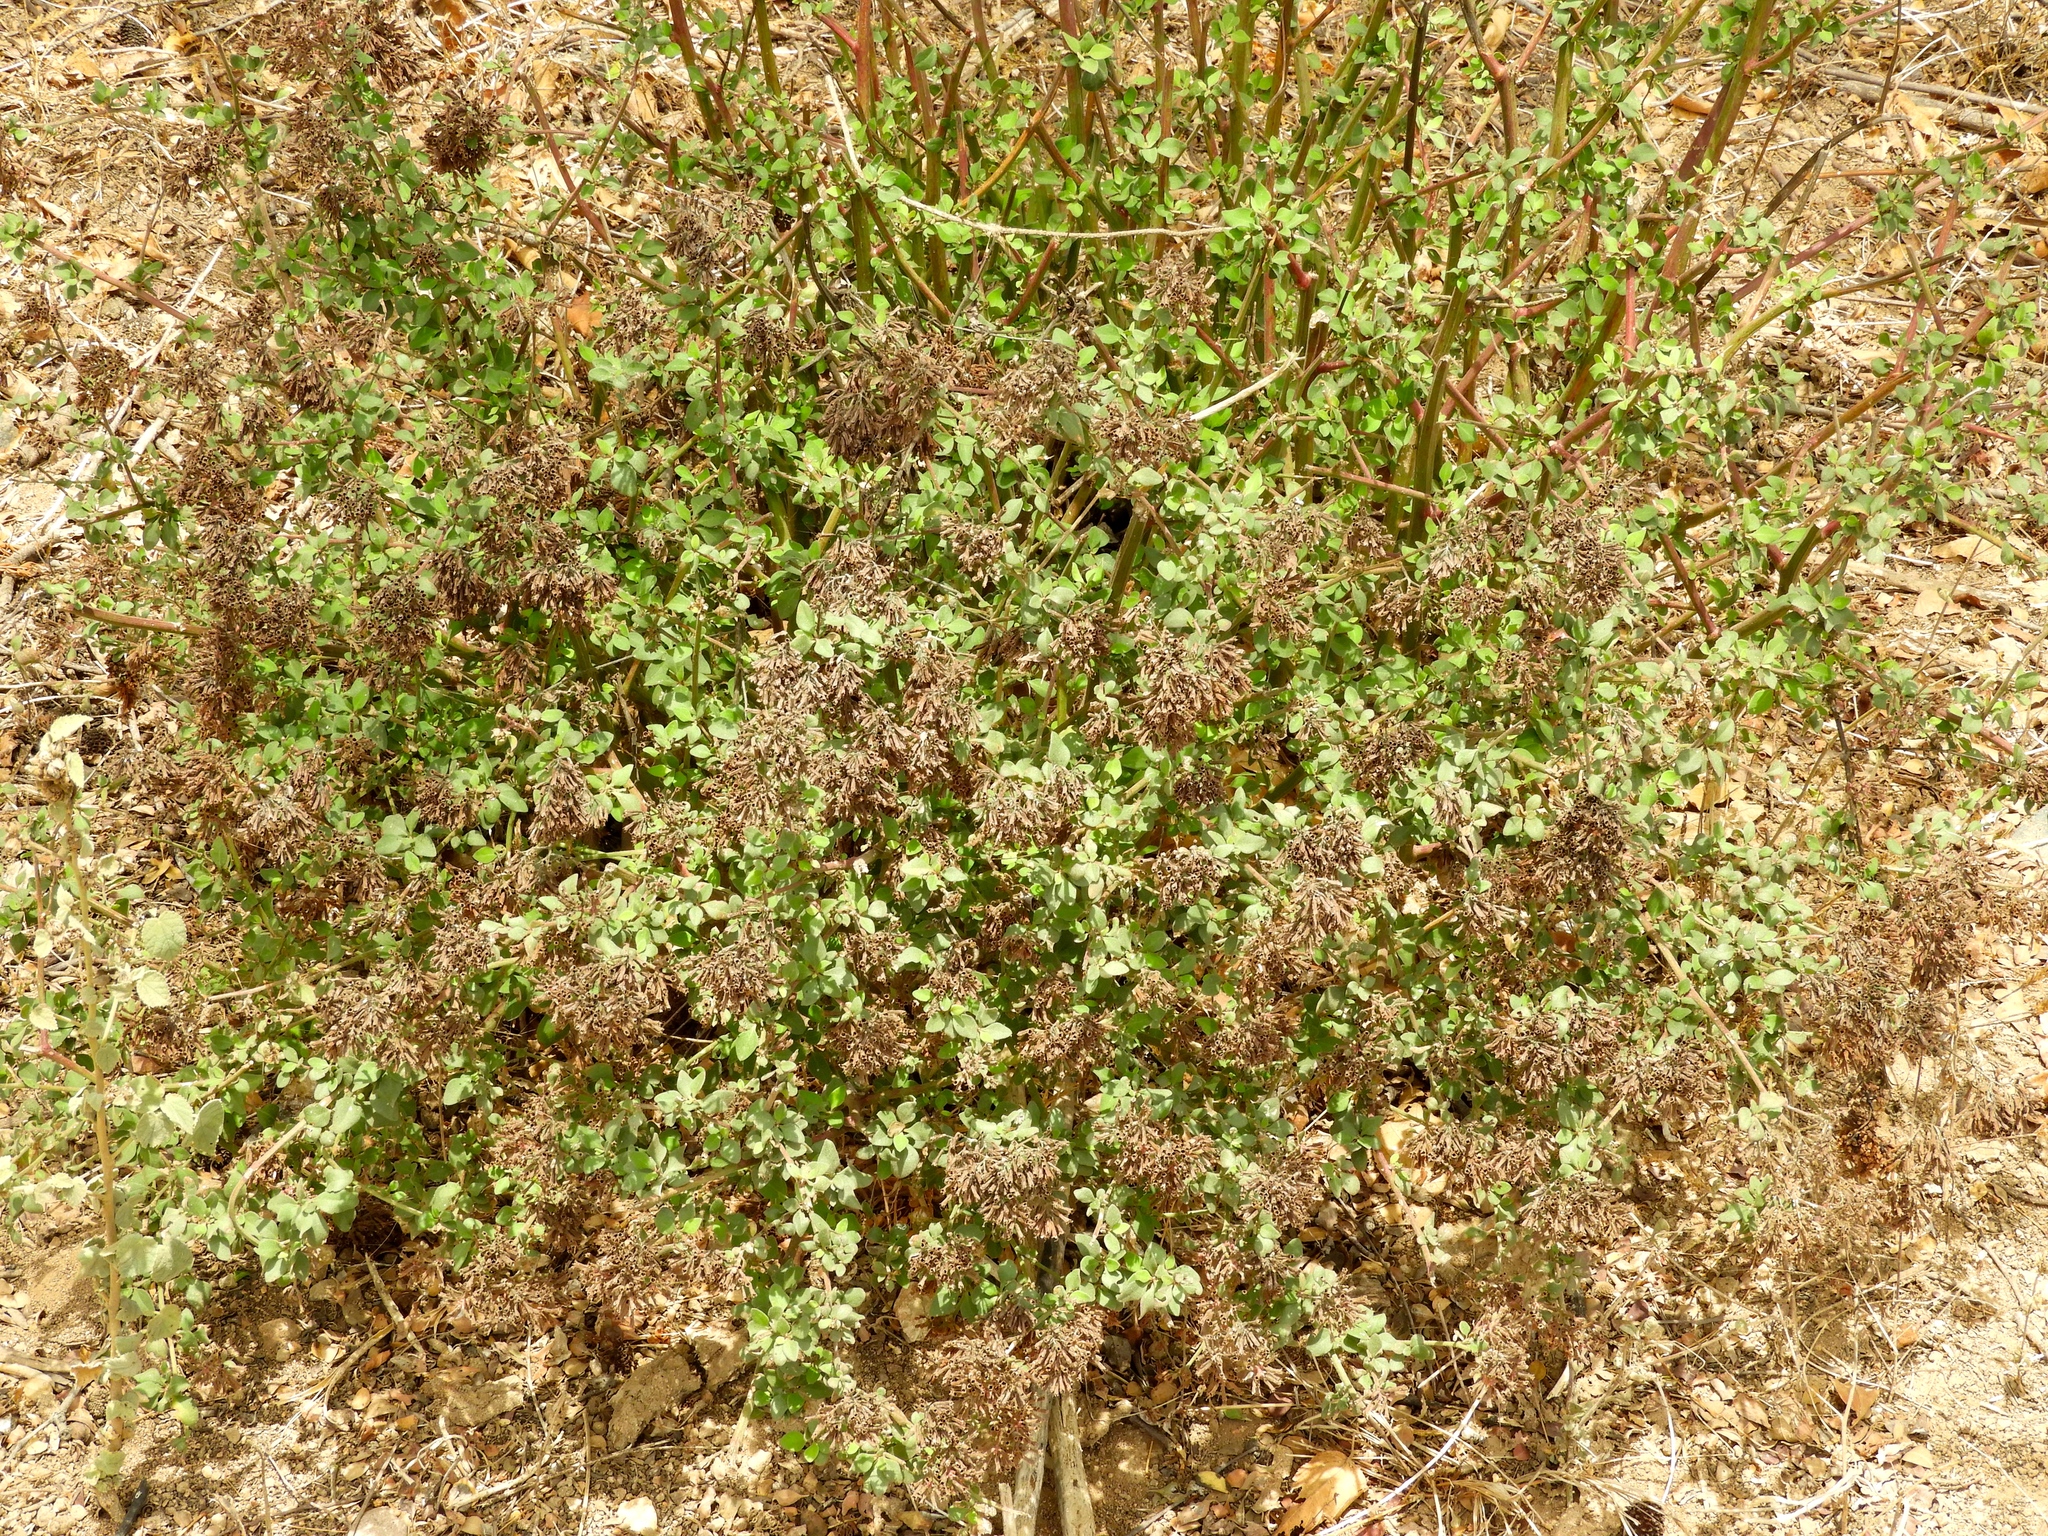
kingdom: Plantae
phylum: Tracheophyta
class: Magnoliopsida
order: Caryophyllales
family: Nyctaginaceae
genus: Salpianthus
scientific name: Salpianthus arenarius
